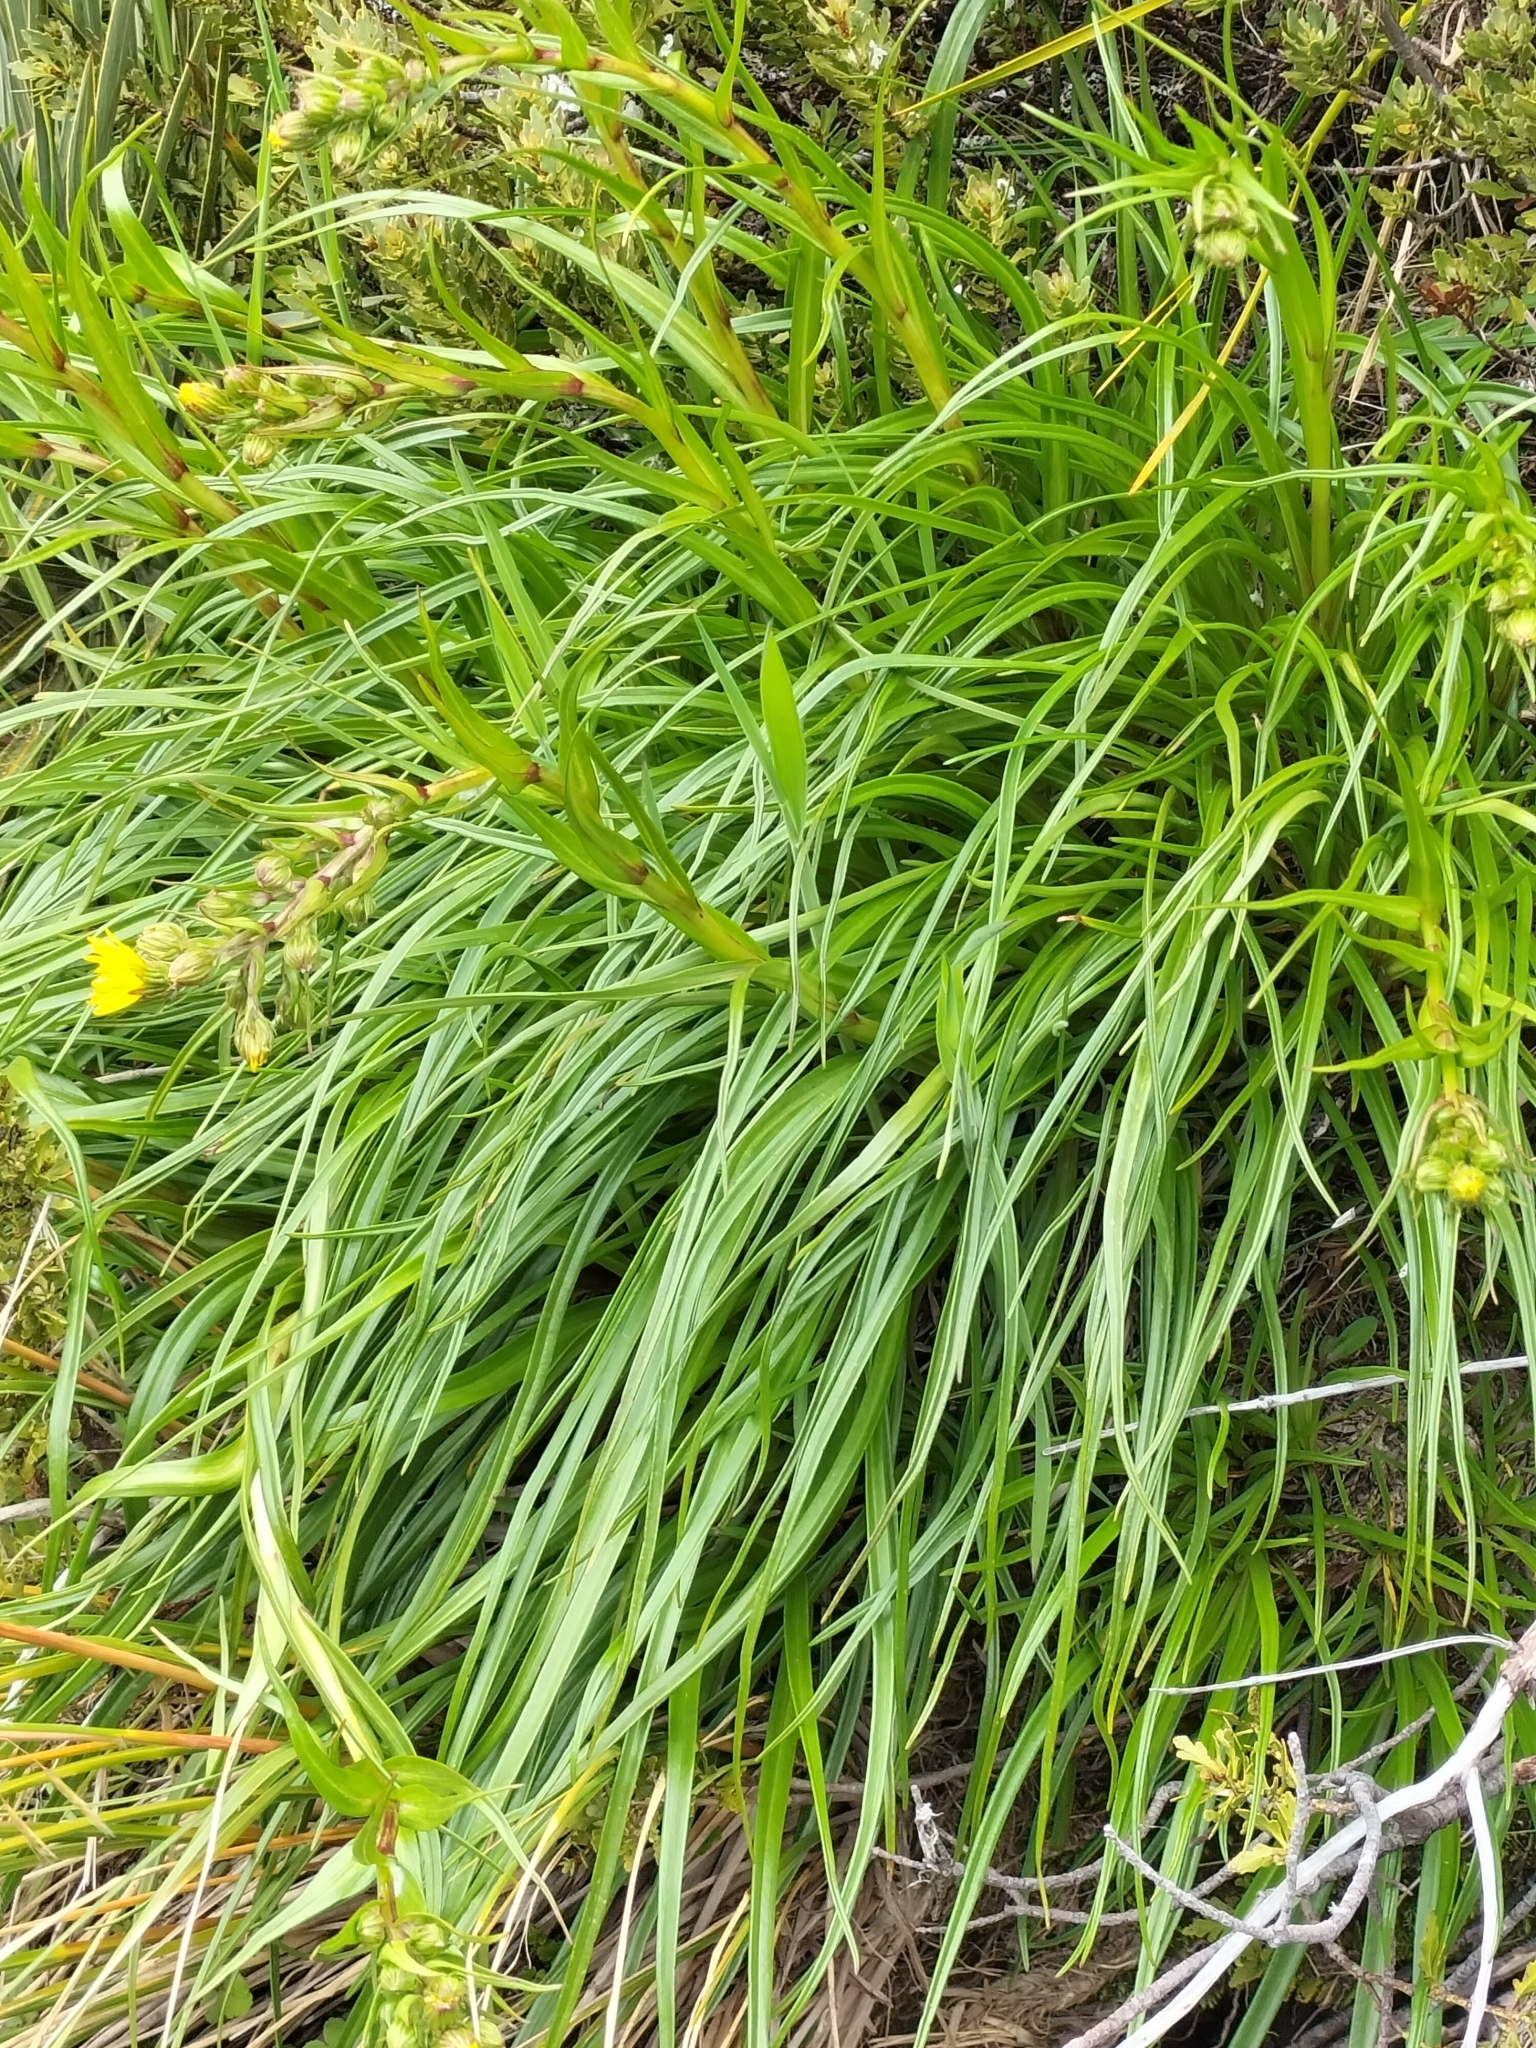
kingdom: Plantae
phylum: Tracheophyta
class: Magnoliopsida
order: Asterales
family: Asteraceae
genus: Dolichoglottis
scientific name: Dolichoglottis lyallii
